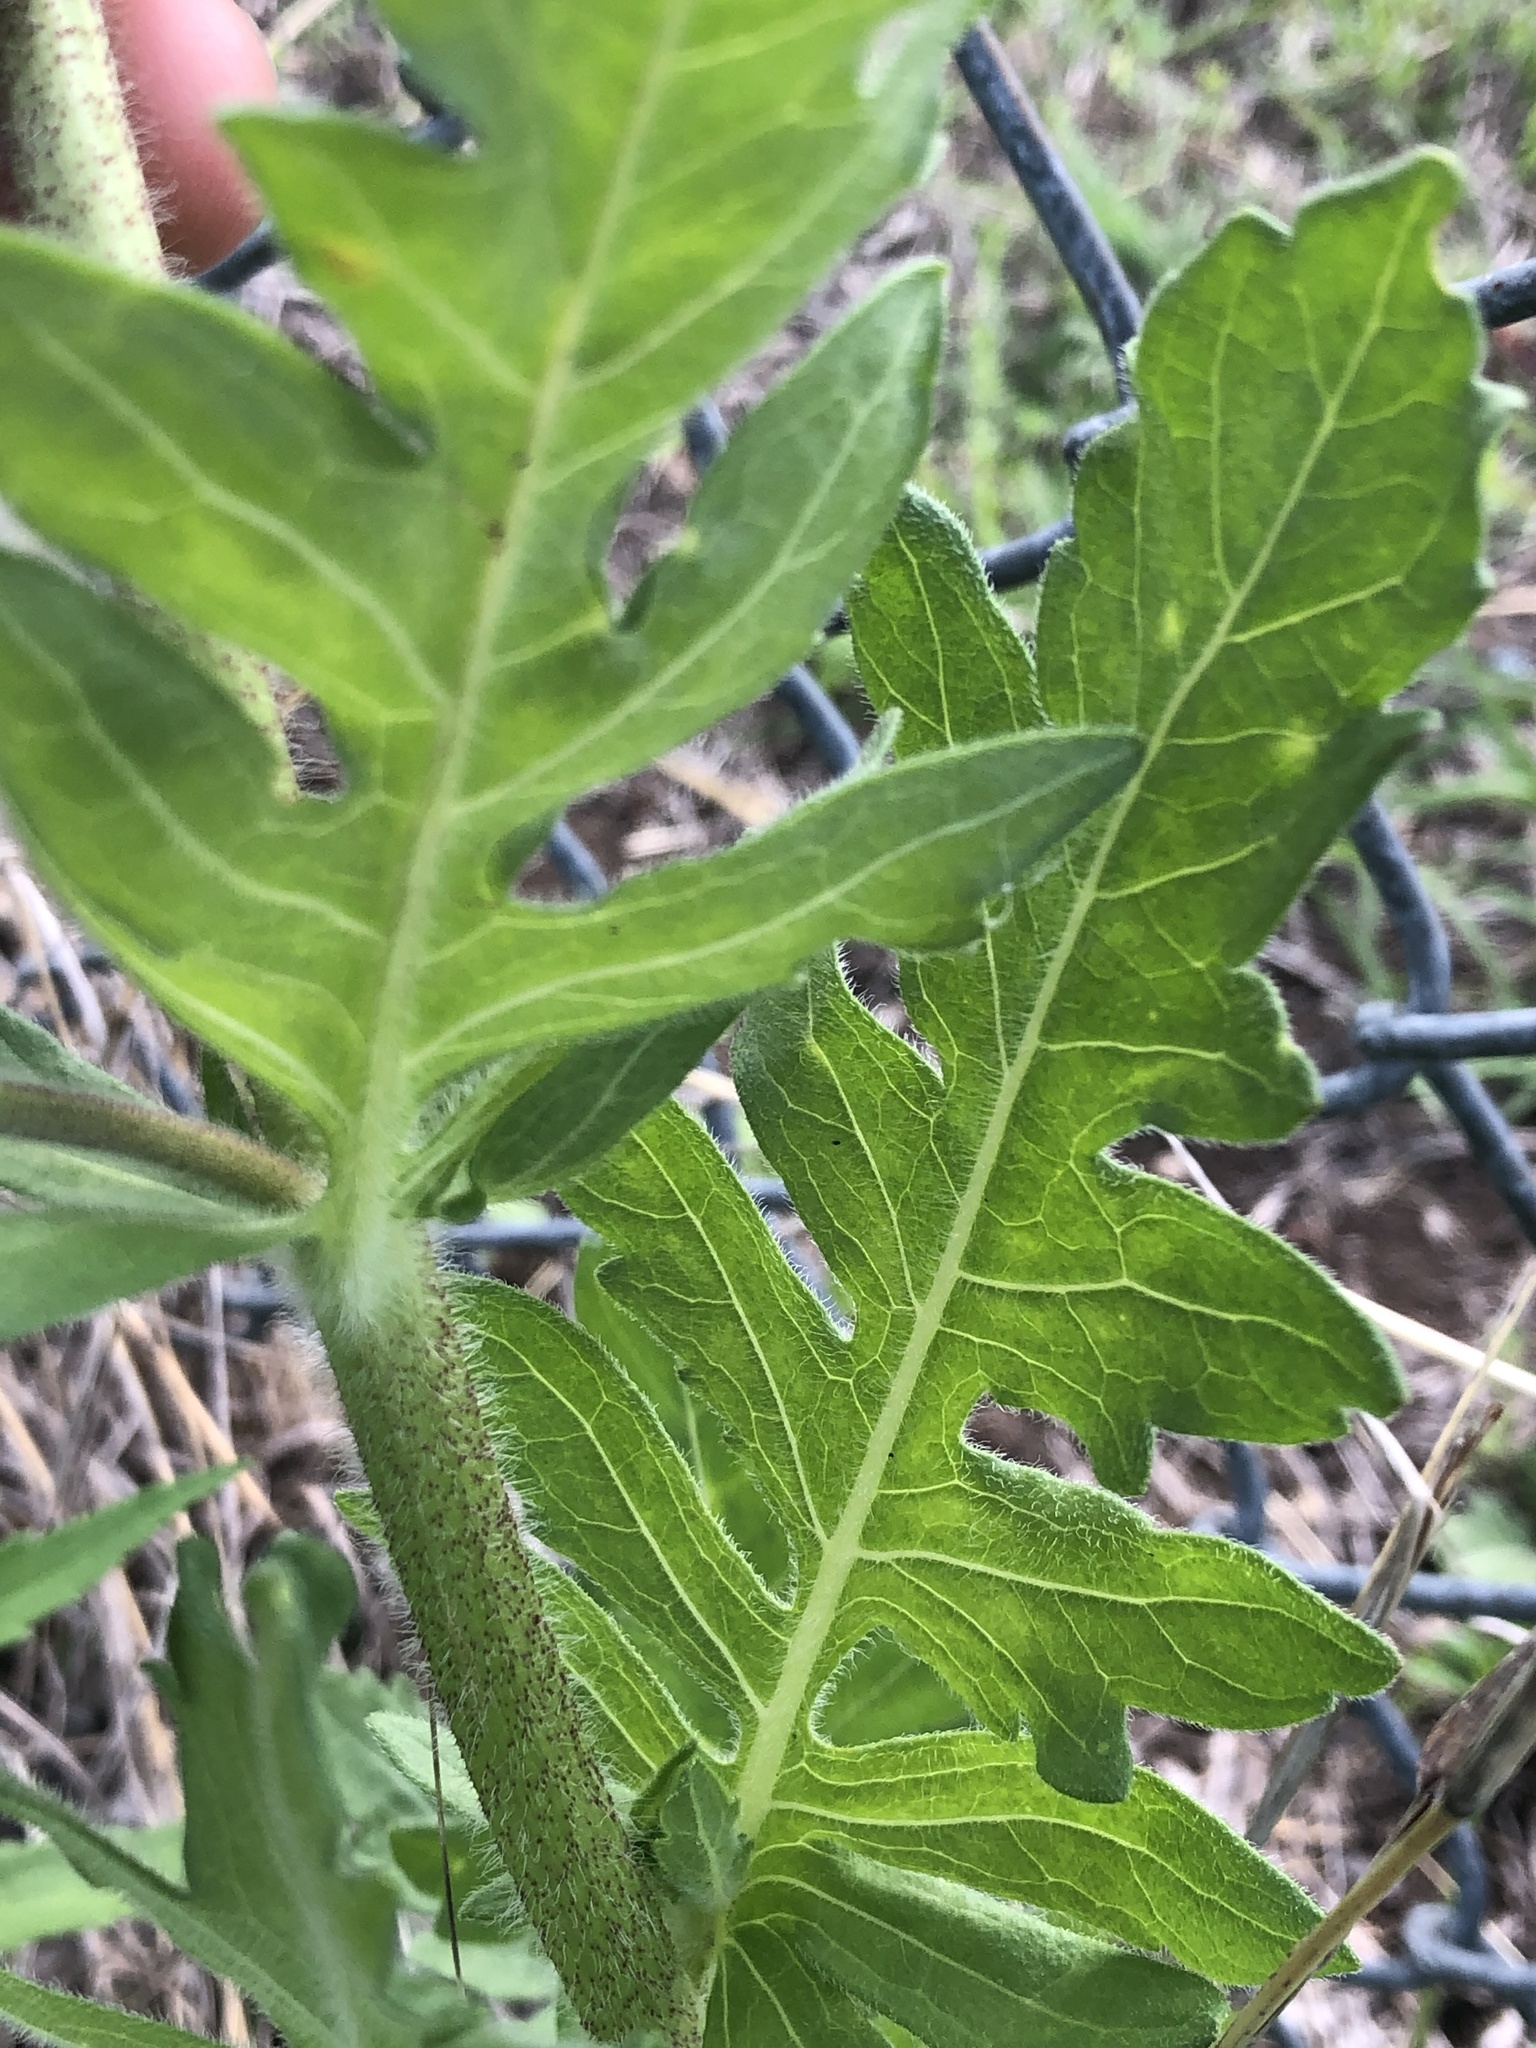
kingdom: Plantae
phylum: Tracheophyta
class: Magnoliopsida
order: Asterales
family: Asteraceae
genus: Engelmannia
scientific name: Engelmannia peristenia
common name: Engelmann's daisy
